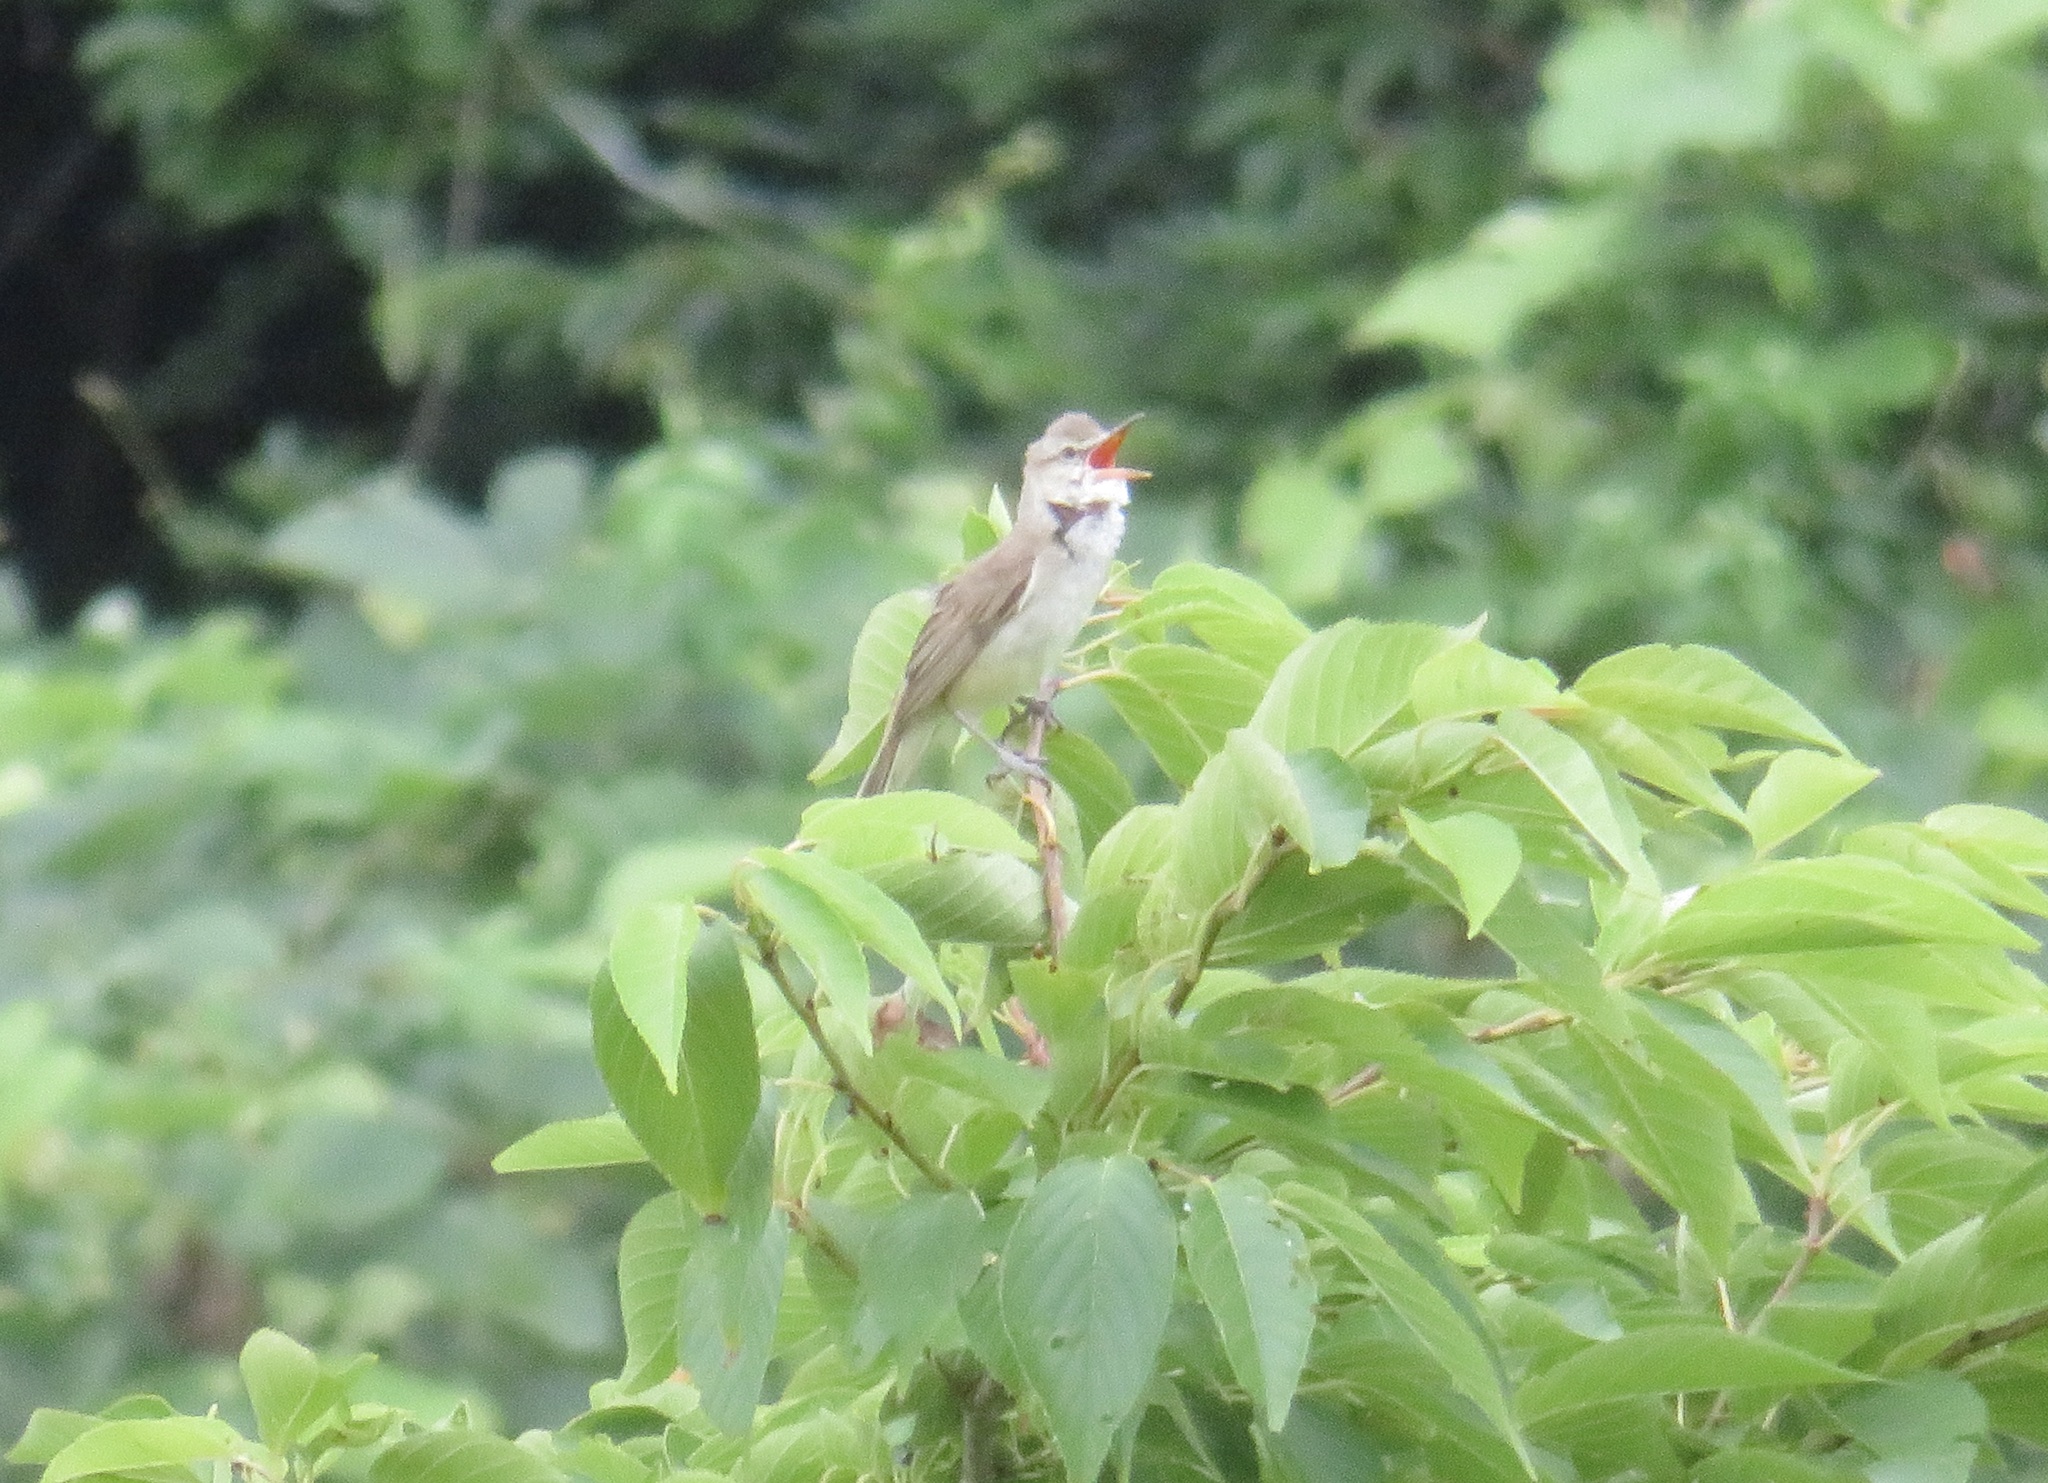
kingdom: Animalia
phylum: Chordata
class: Aves
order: Passeriformes
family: Acrocephalidae
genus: Acrocephalus
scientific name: Acrocephalus orientalis
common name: Oriental reed warbler
